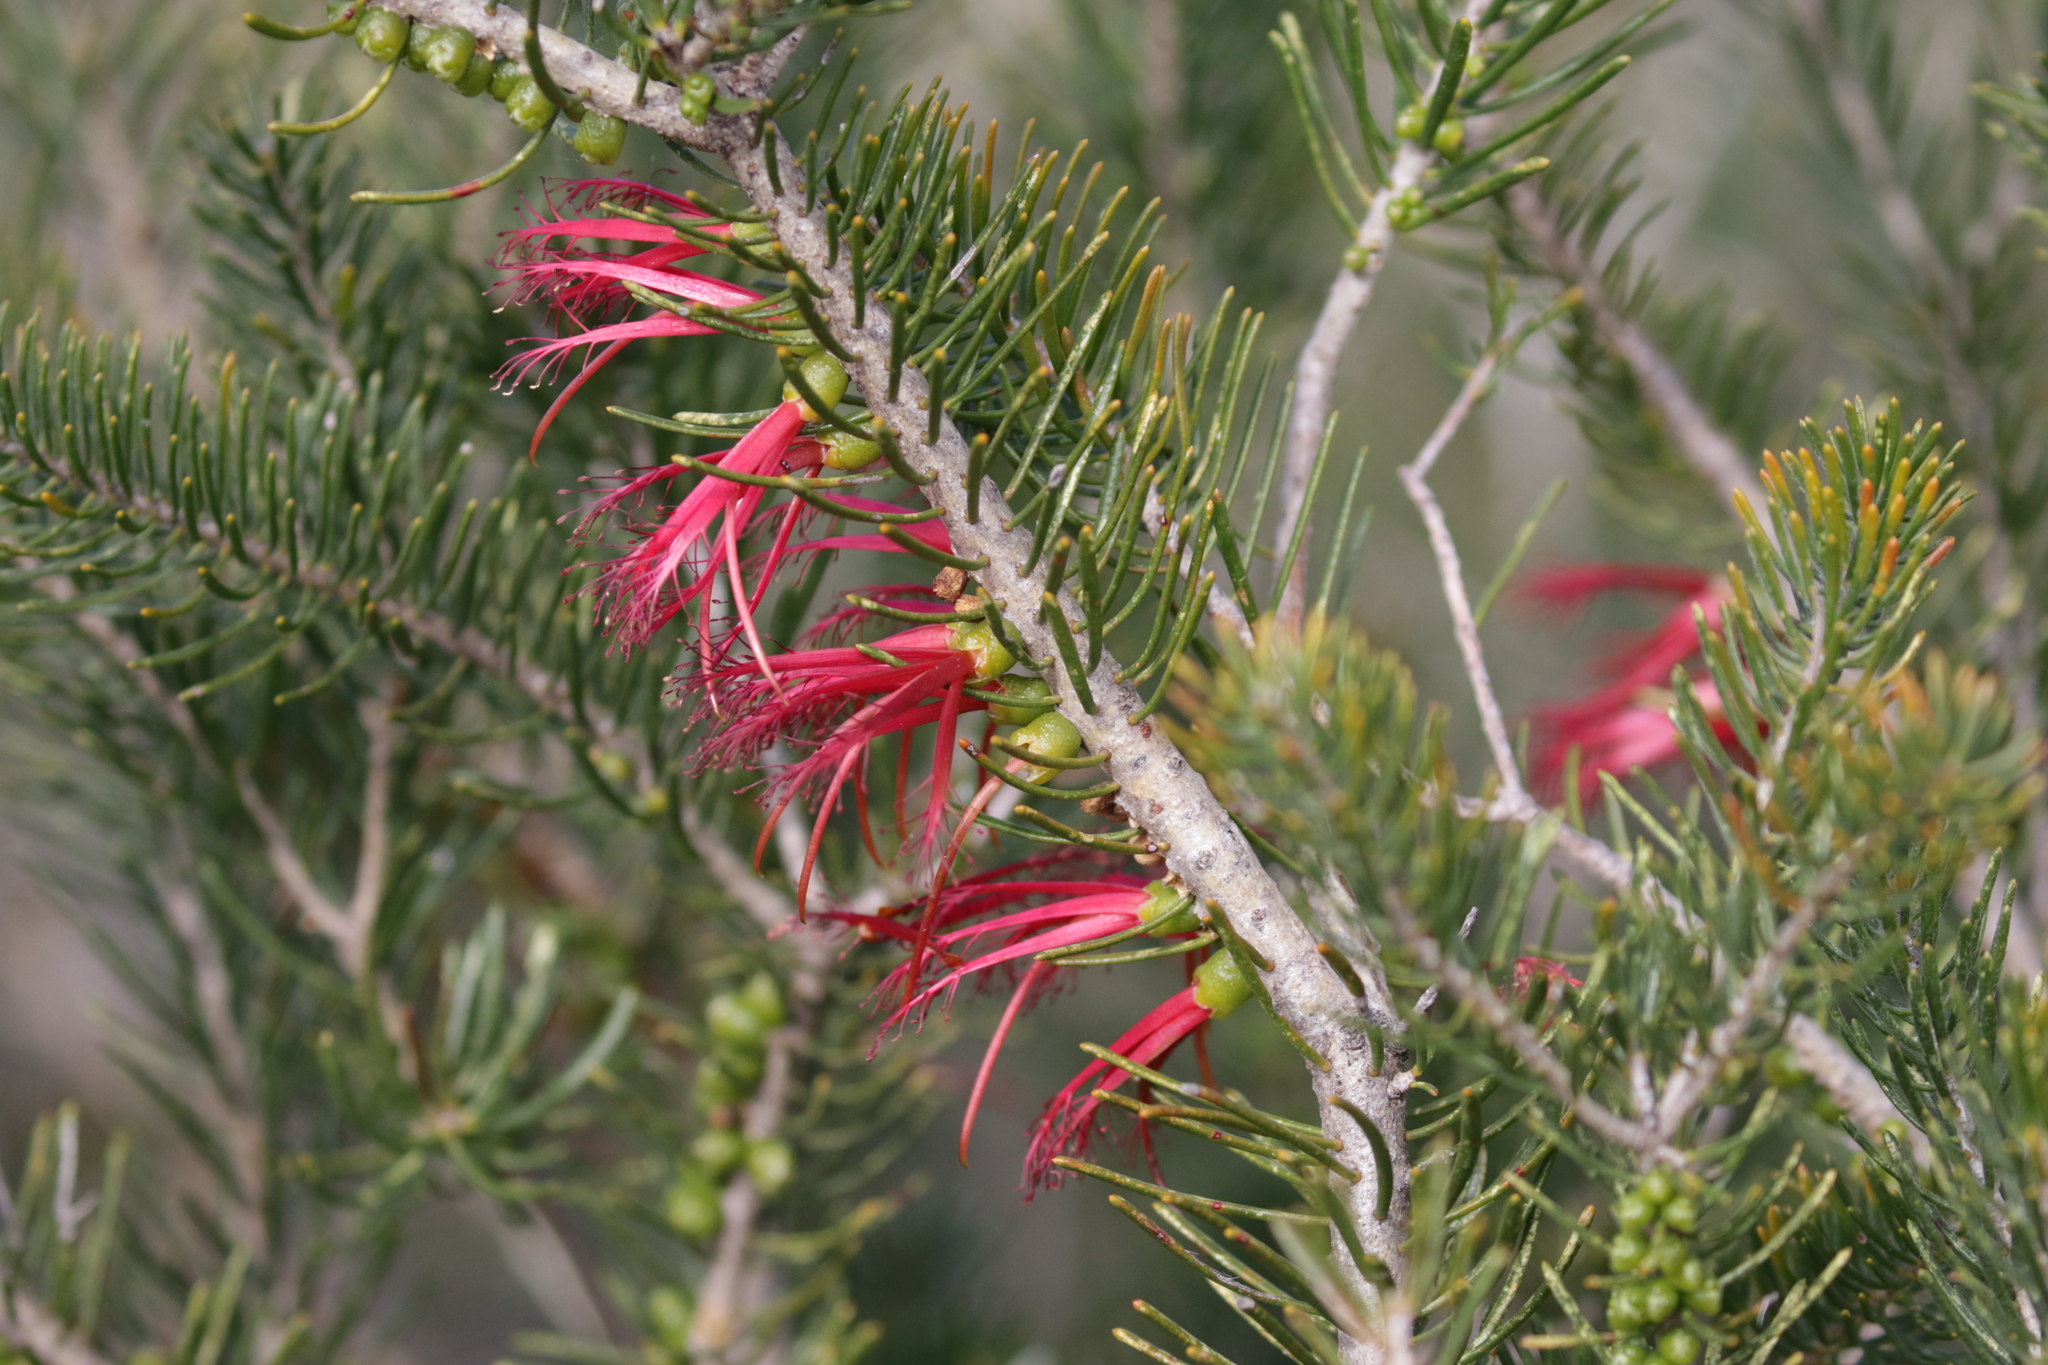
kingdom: Plantae
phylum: Tracheophyta
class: Magnoliopsida
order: Myrtales
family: Myrtaceae
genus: Melaleuca
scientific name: Melaleuca quadrifida
